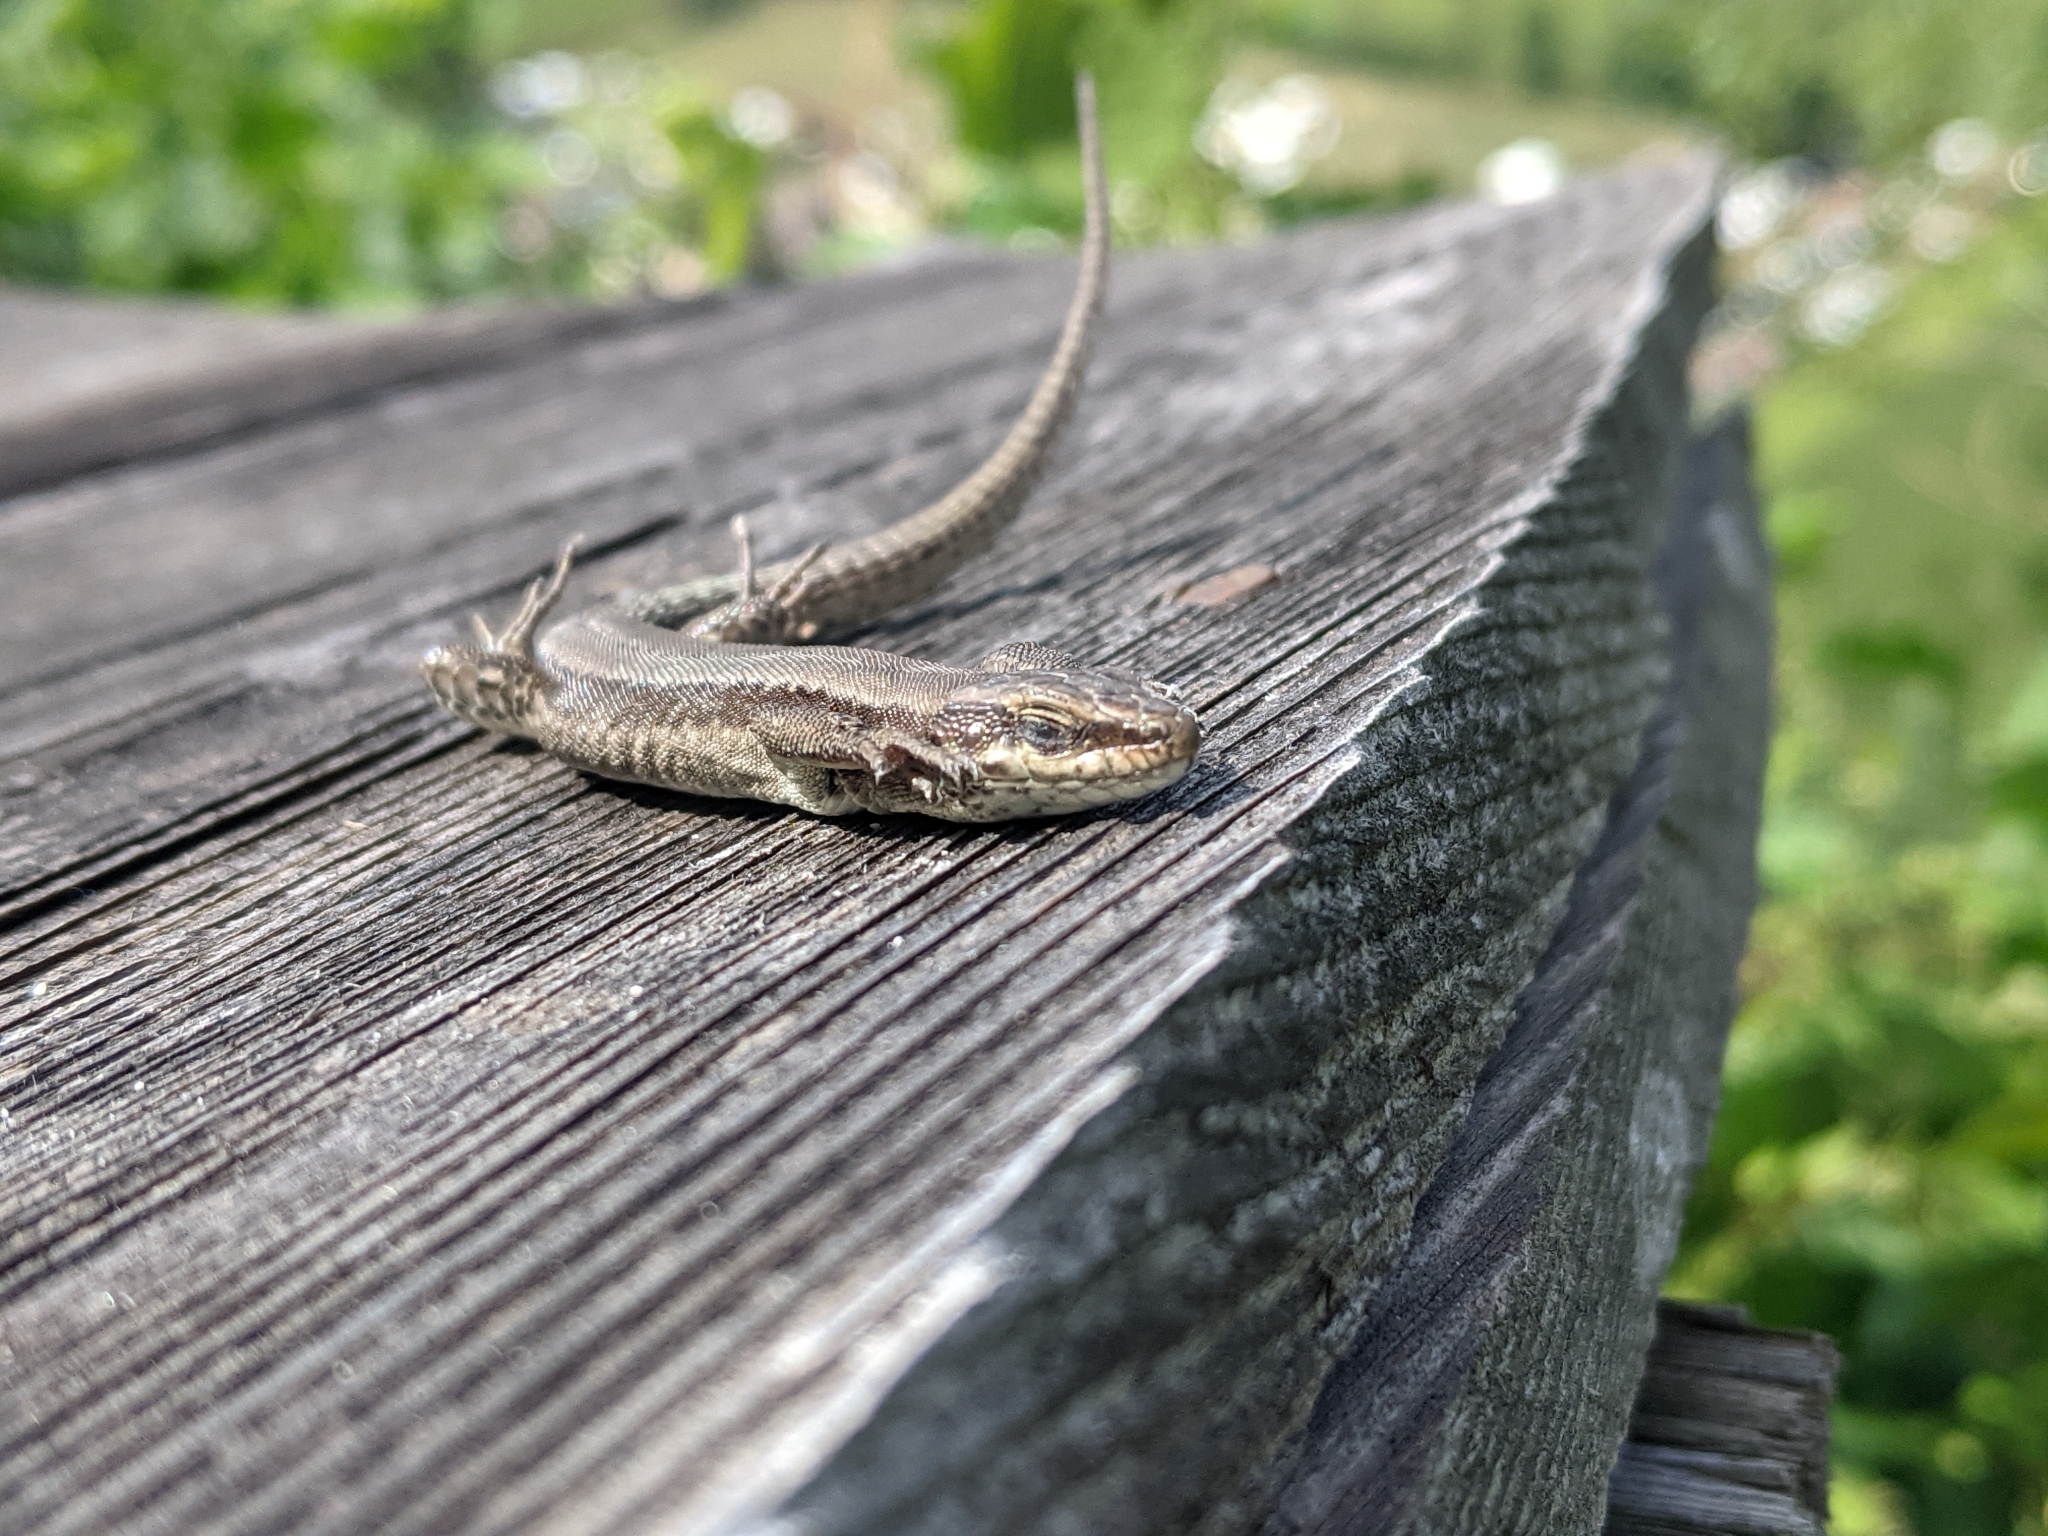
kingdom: Animalia
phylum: Chordata
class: Squamata
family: Lacertidae
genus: Podarcis
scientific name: Podarcis muralis
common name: Common wall lizard
